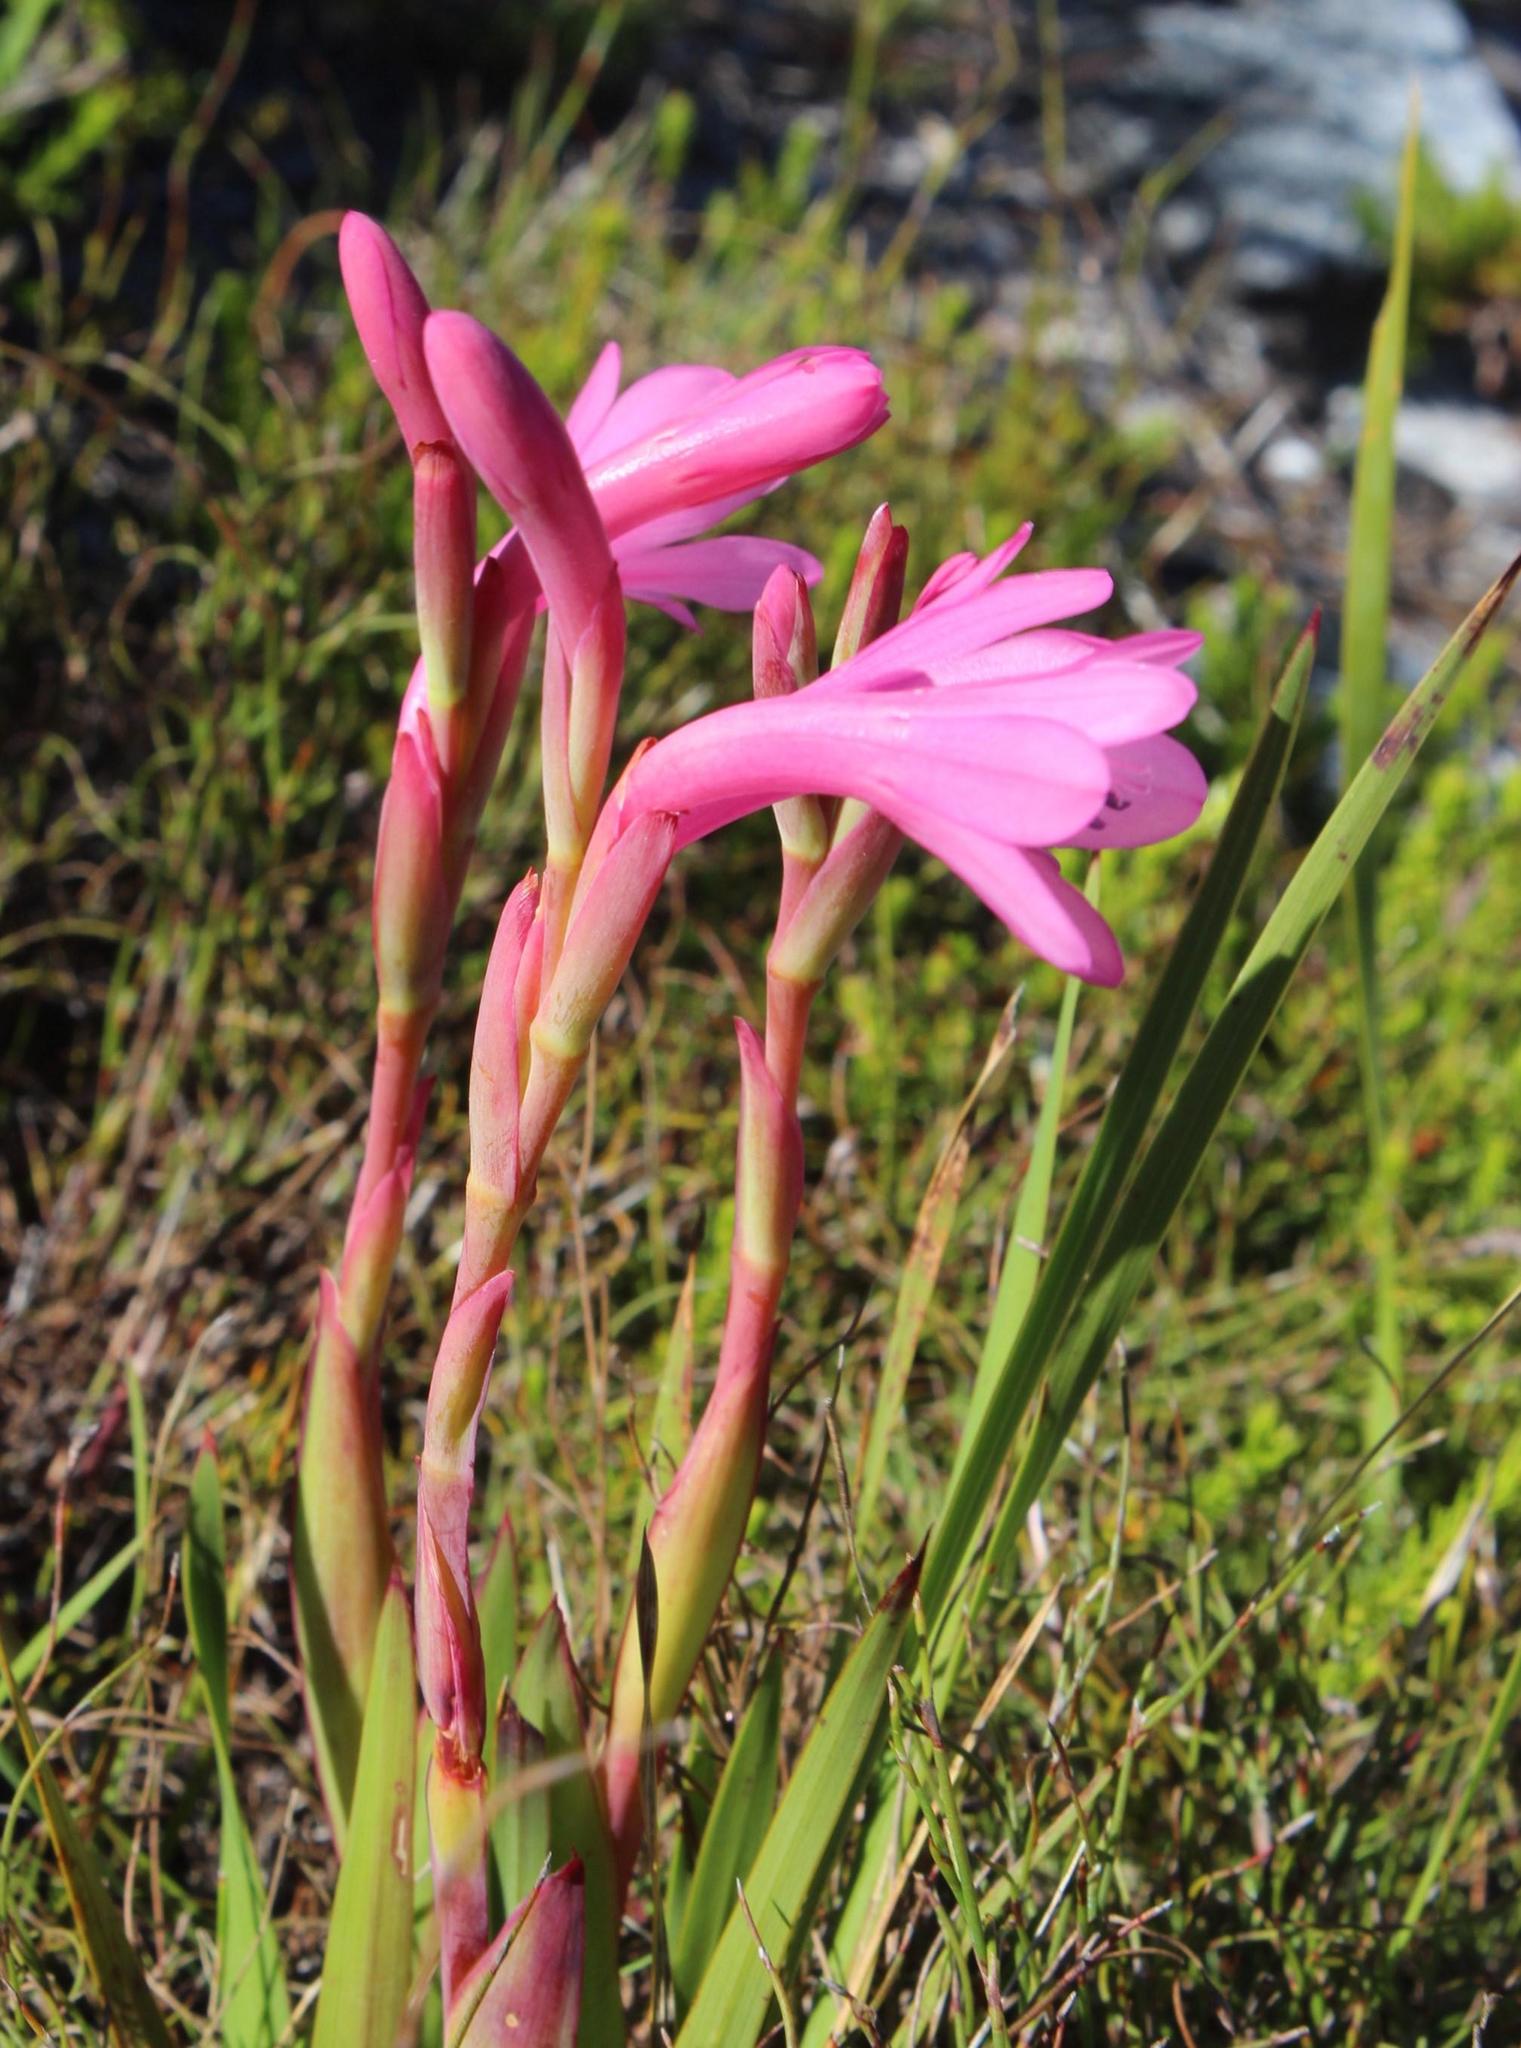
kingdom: Plantae
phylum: Tracheophyta
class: Liliopsida
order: Asparagales
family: Iridaceae
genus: Watsonia
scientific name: Watsonia borbonica
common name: Bugle-lily
